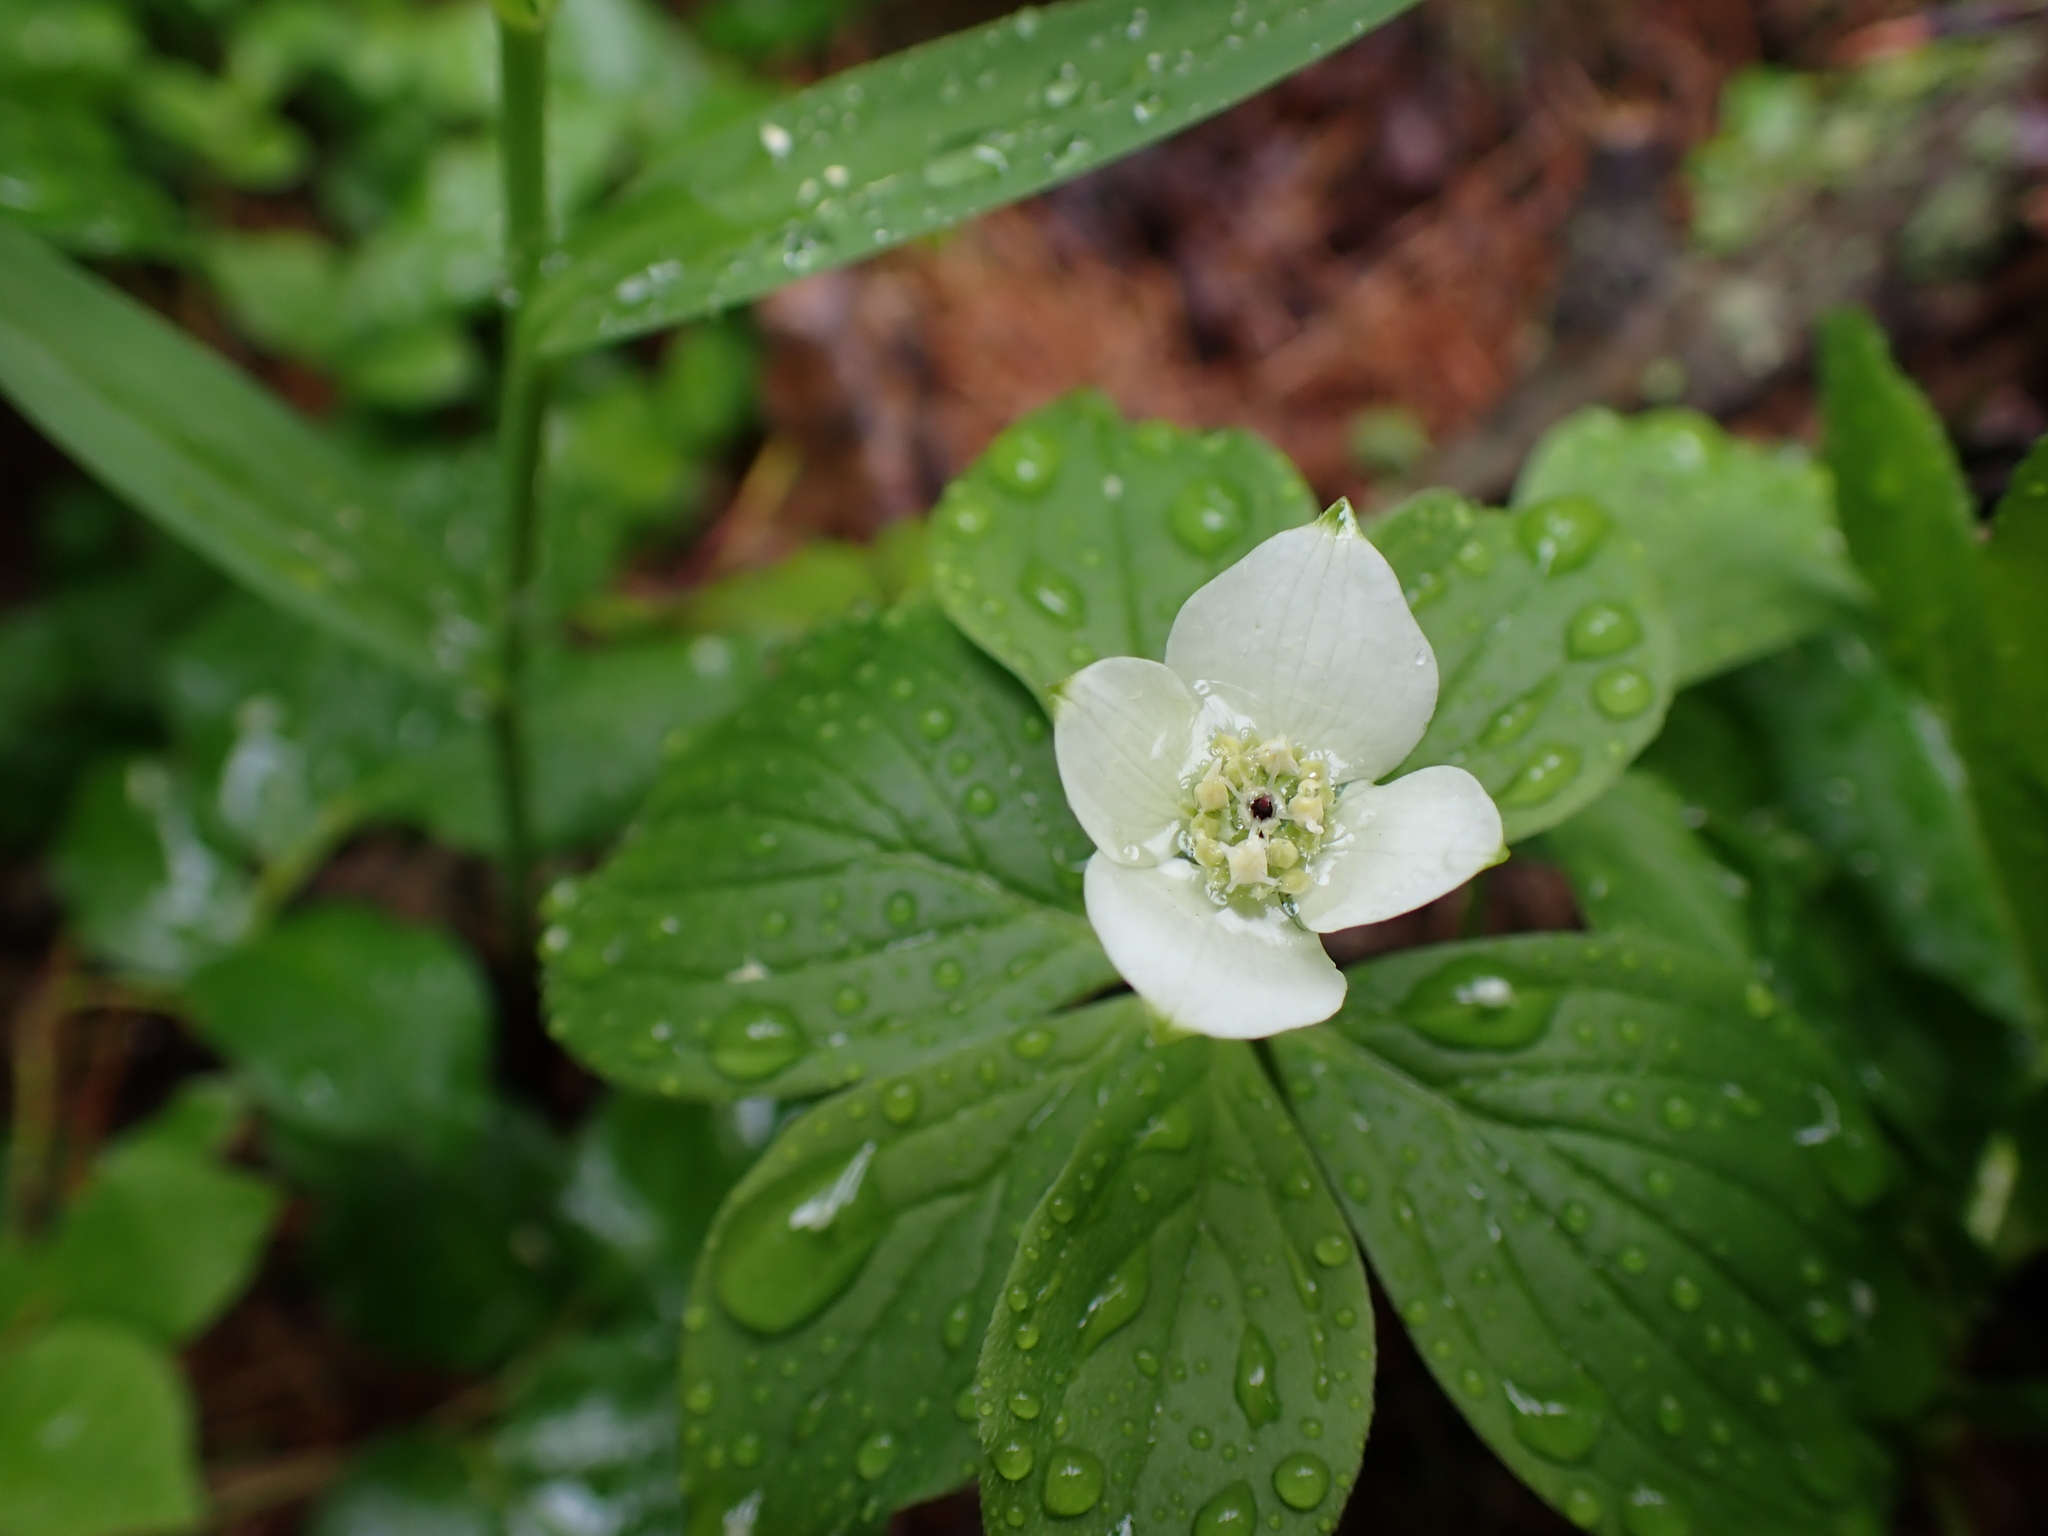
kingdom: Plantae
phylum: Tracheophyta
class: Magnoliopsida
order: Cornales
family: Cornaceae
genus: Cornus
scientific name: Cornus canadensis
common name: Creeping dogwood
